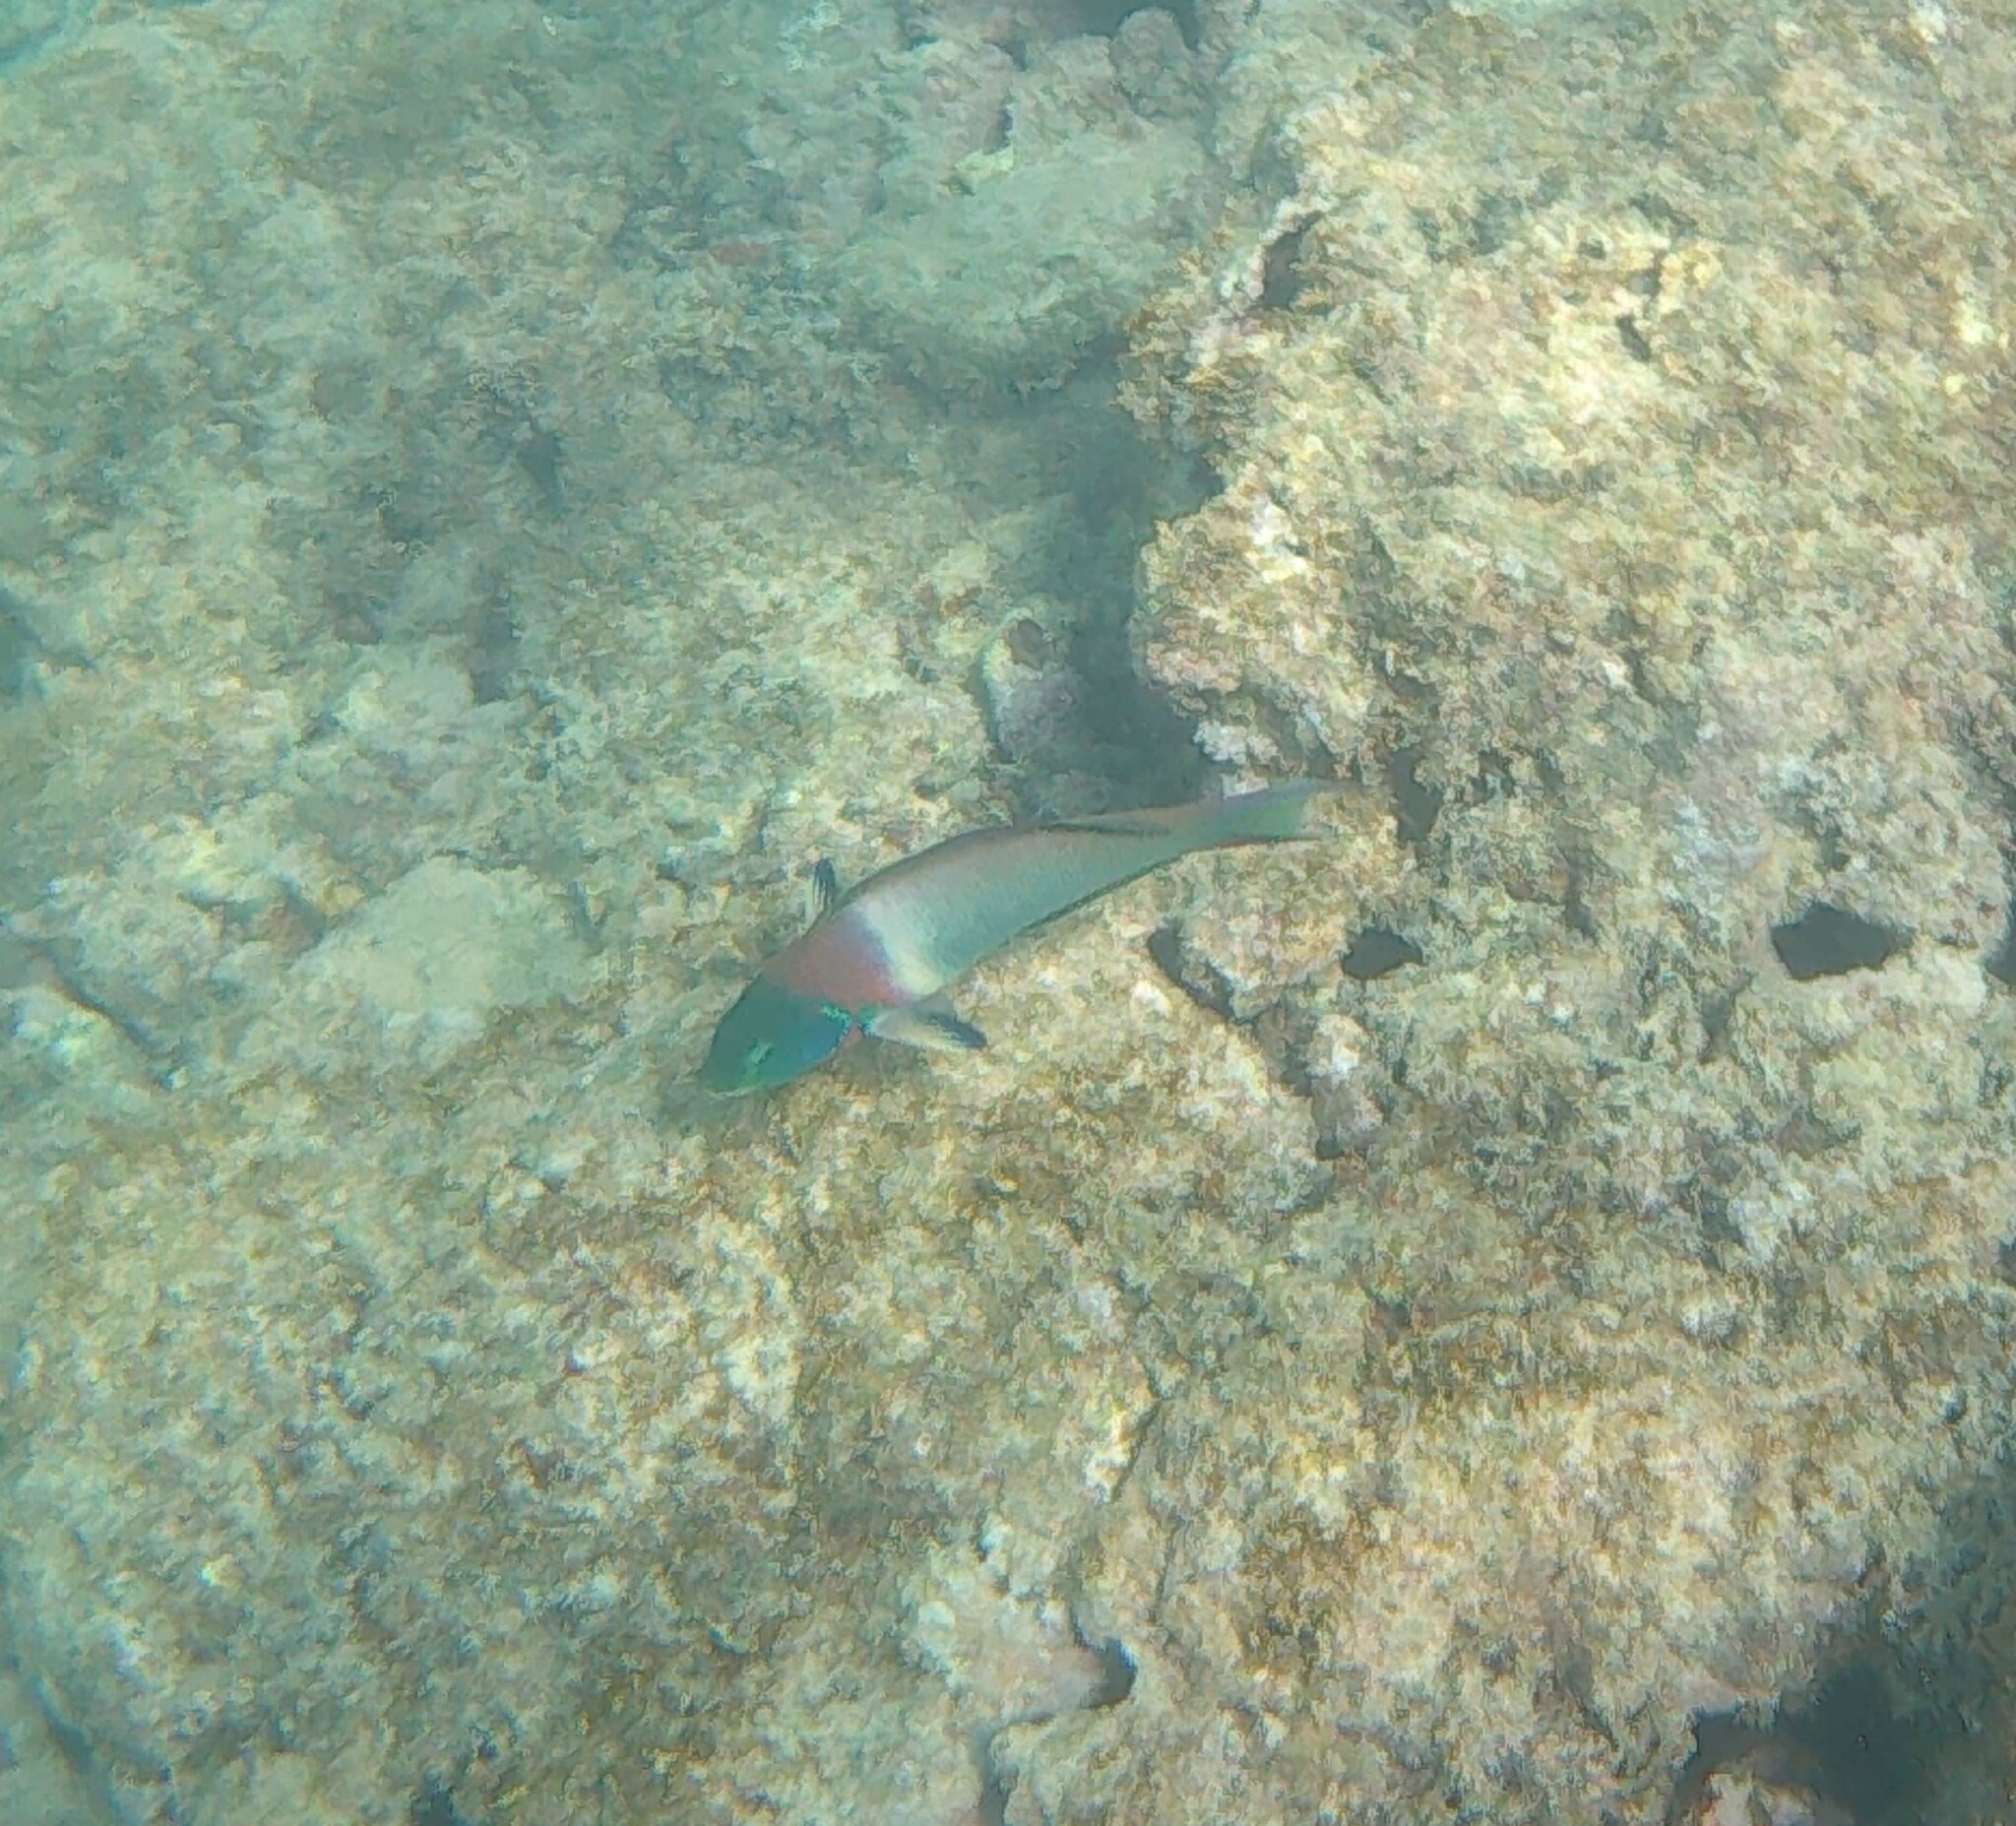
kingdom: Animalia
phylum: Chordata
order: Perciformes
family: Labridae
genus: Thalassoma
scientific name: Thalassoma duperrey
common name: Saddle wrasse
